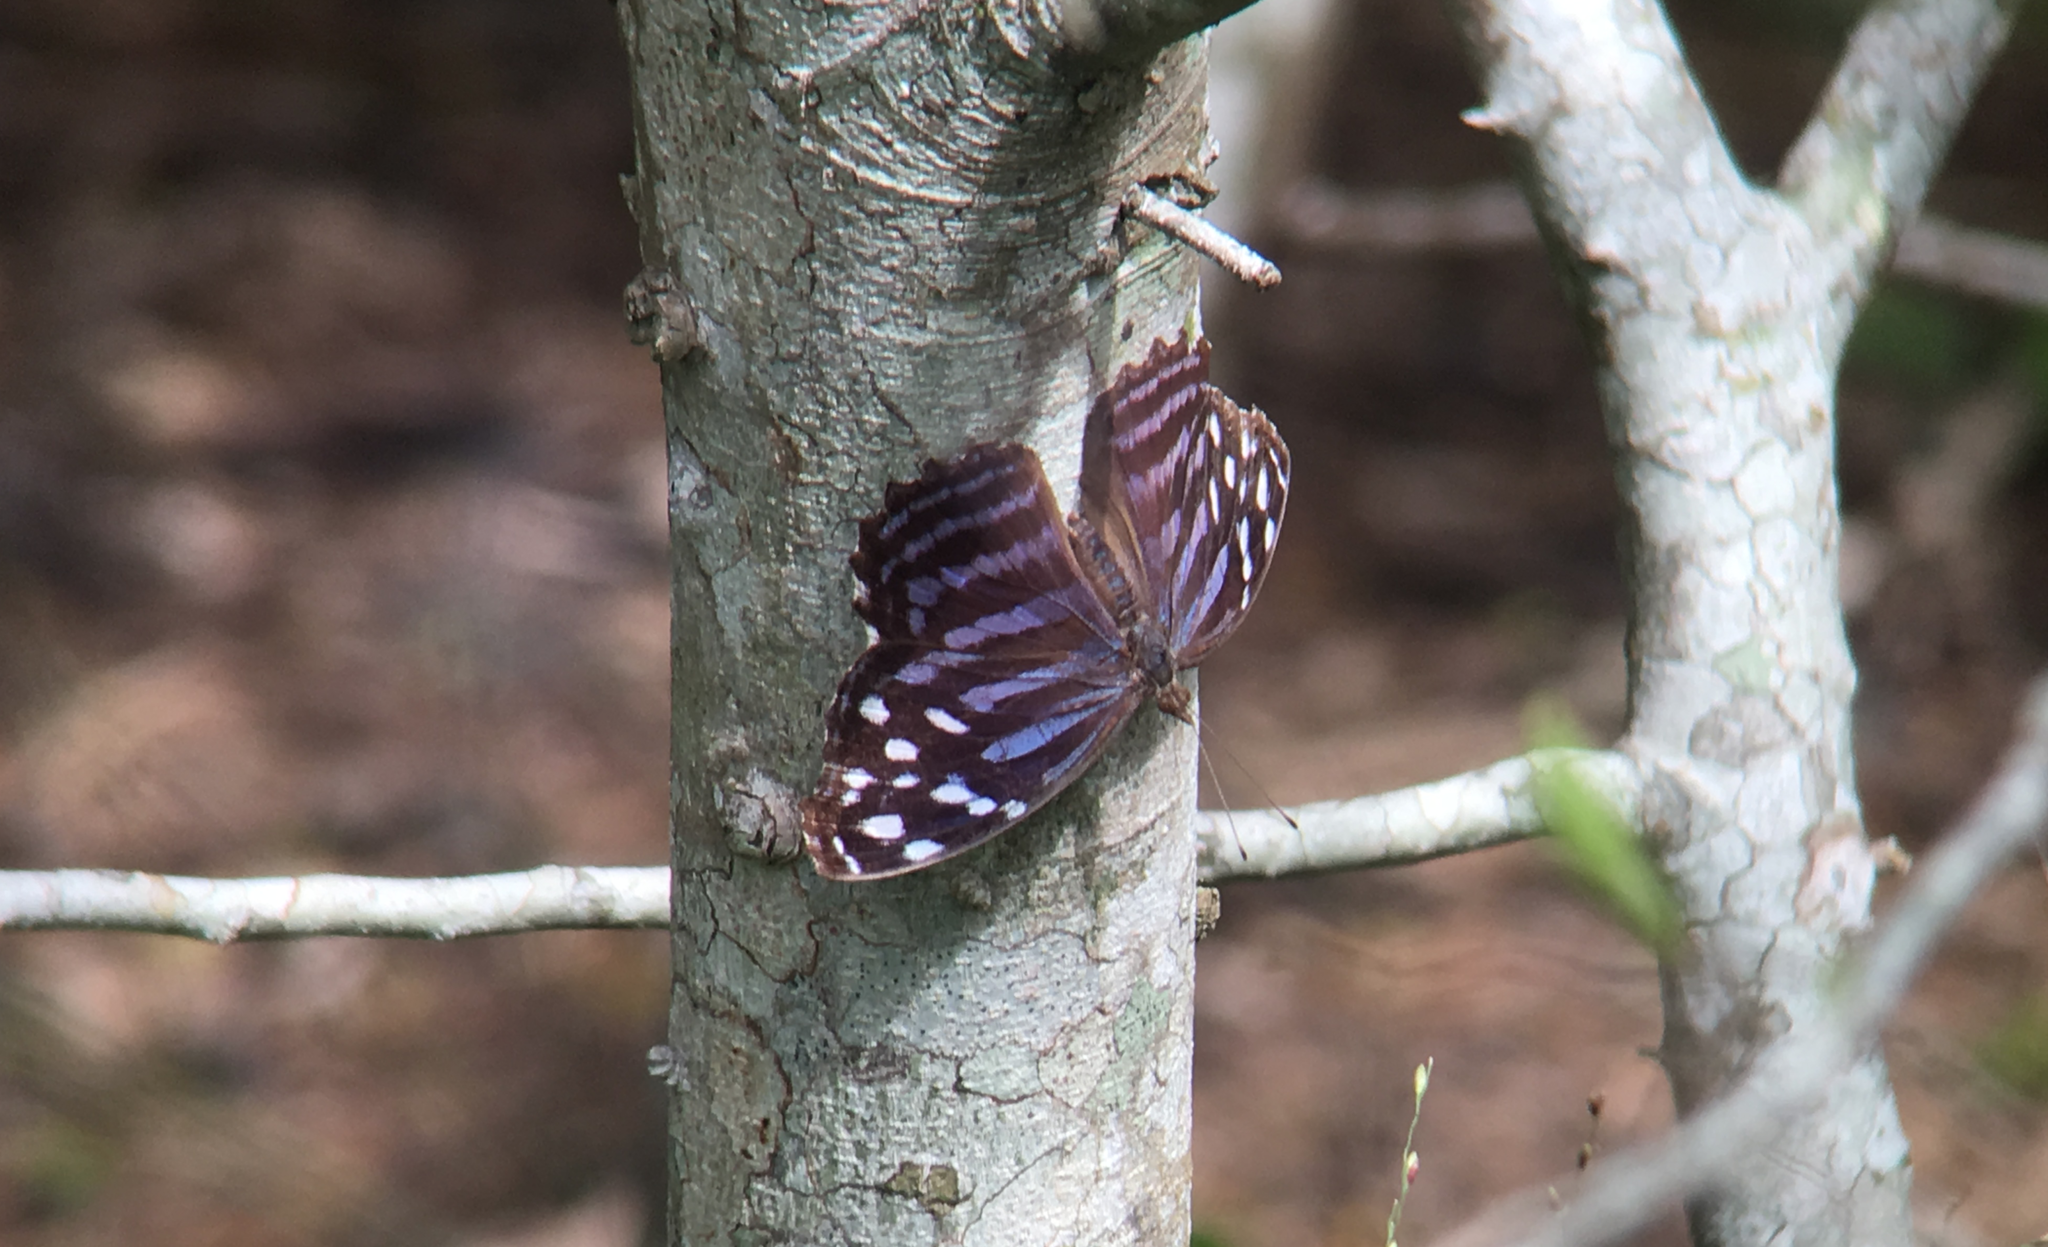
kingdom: Animalia
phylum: Arthropoda
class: Insecta
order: Lepidoptera
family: Nymphalidae
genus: Myscelia
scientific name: Myscelia ethusa
